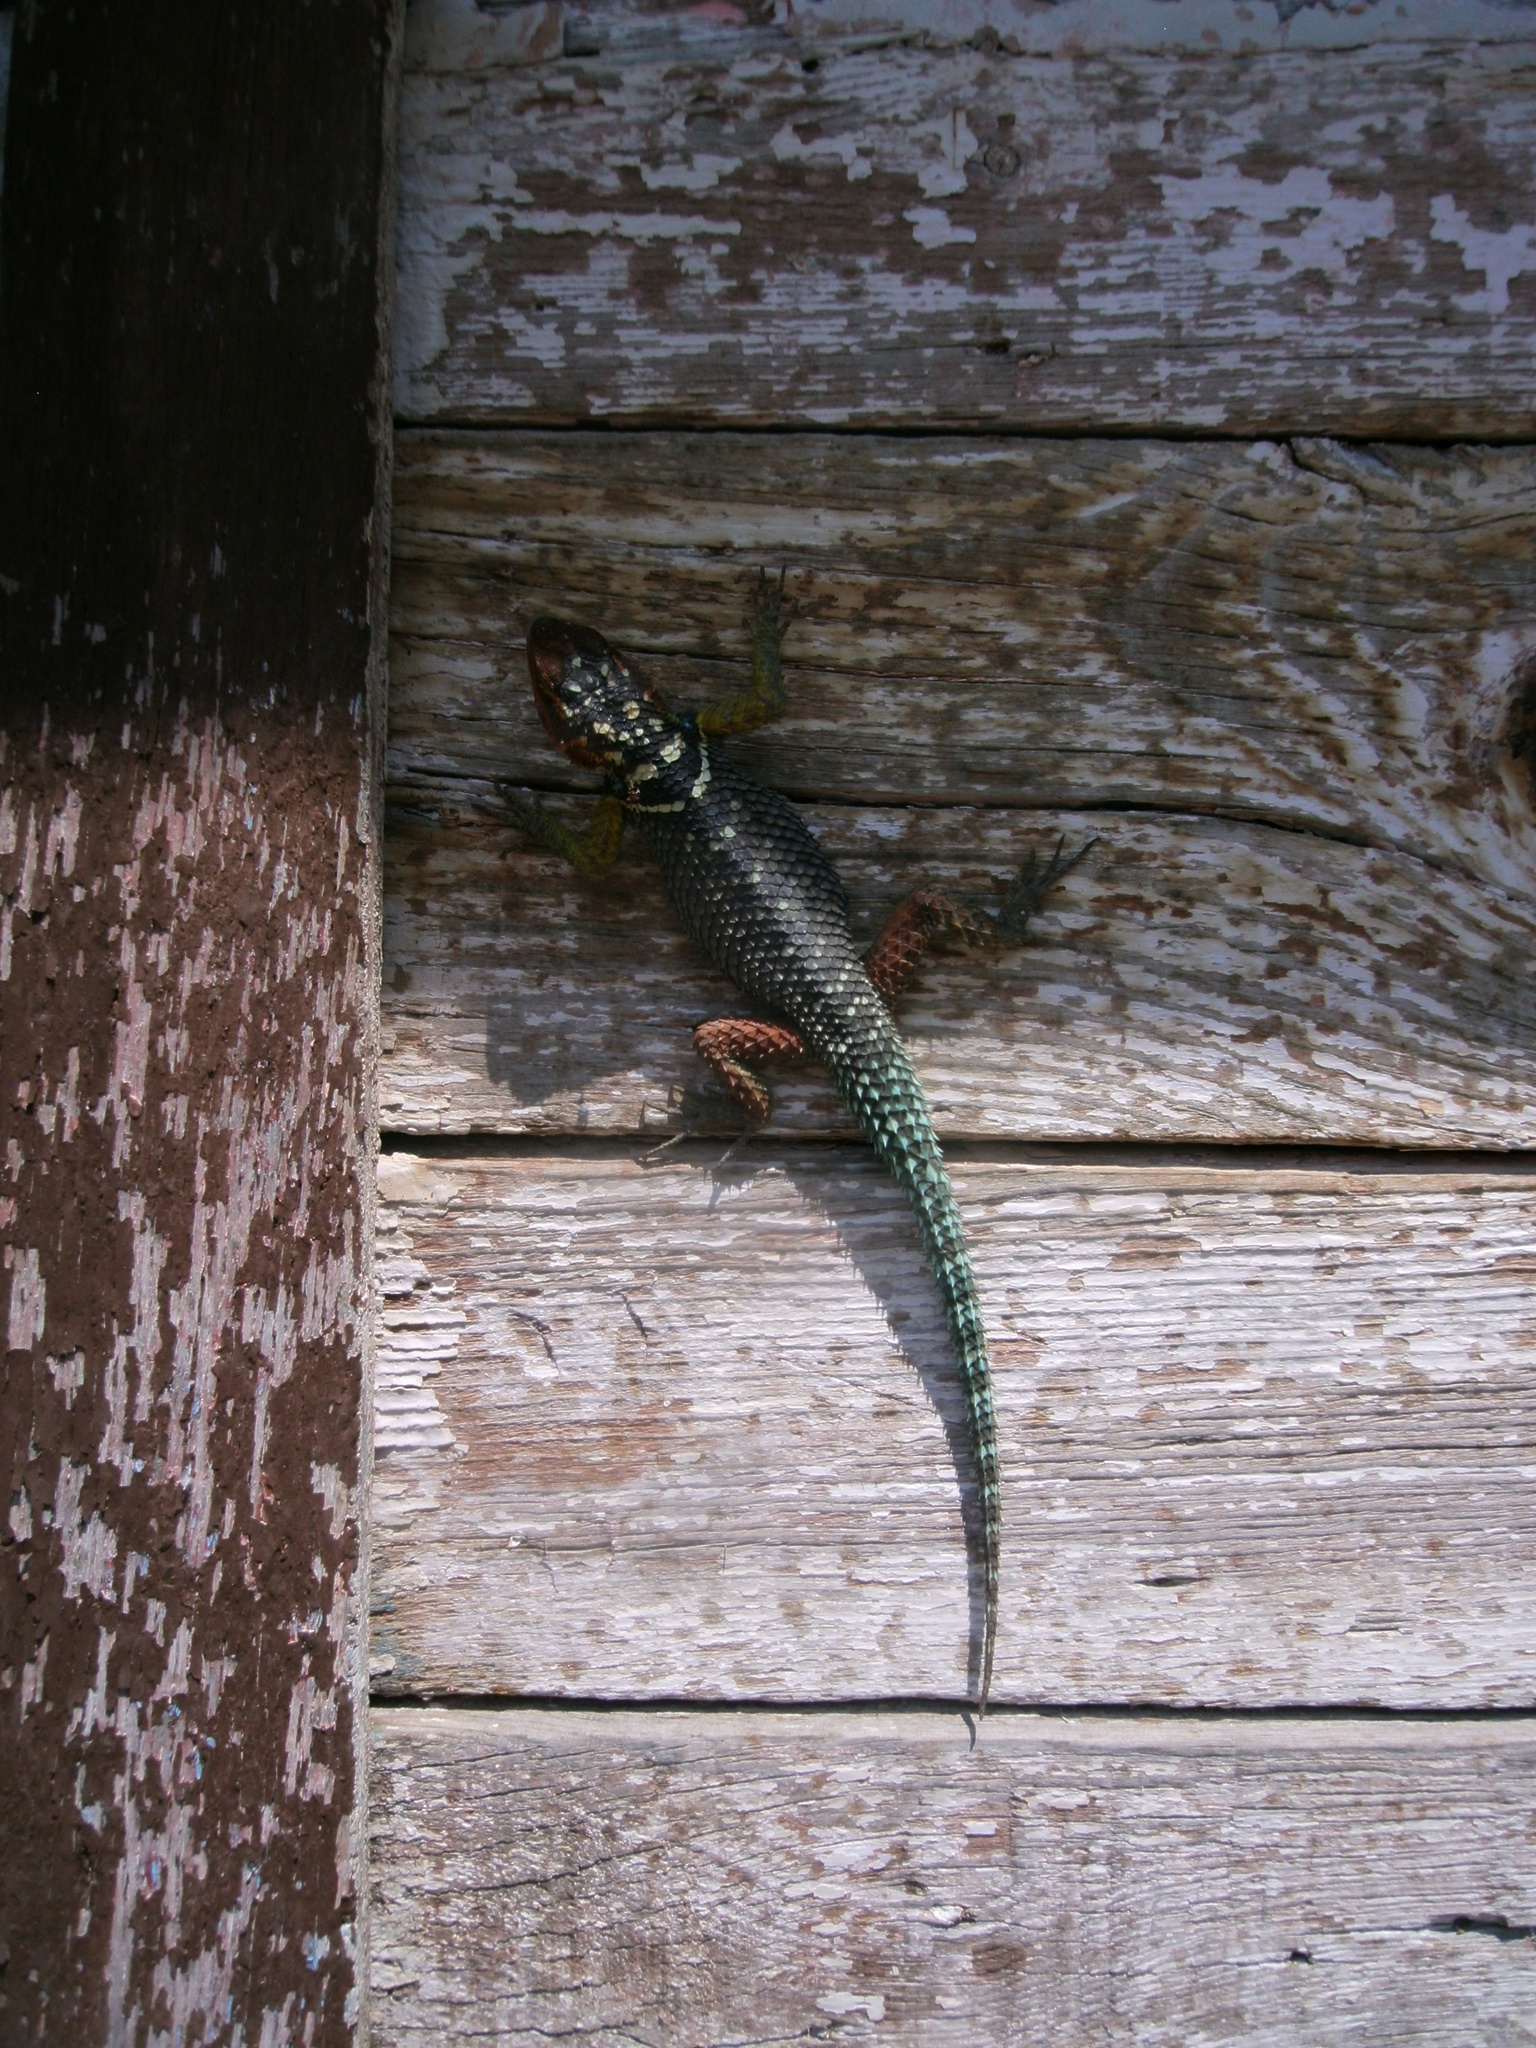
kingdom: Animalia
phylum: Chordata
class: Squamata
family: Phrynosomatidae
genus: Sceloporus
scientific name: Sceloporus cyanogenys
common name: Blue spiny lizard
